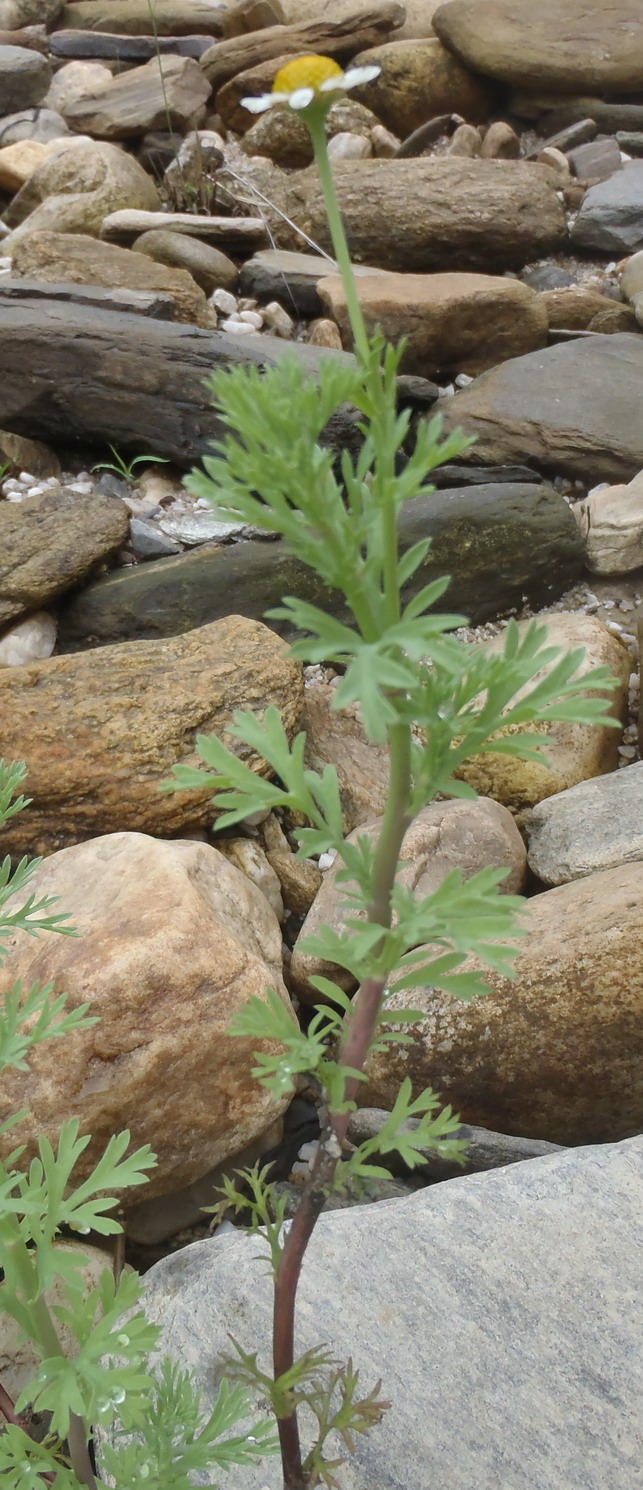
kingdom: Plantae
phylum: Tracheophyta
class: Magnoliopsida
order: Asterales
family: Asteraceae
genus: Cotula
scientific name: Cotula nigellifolia
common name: Staggerweed
